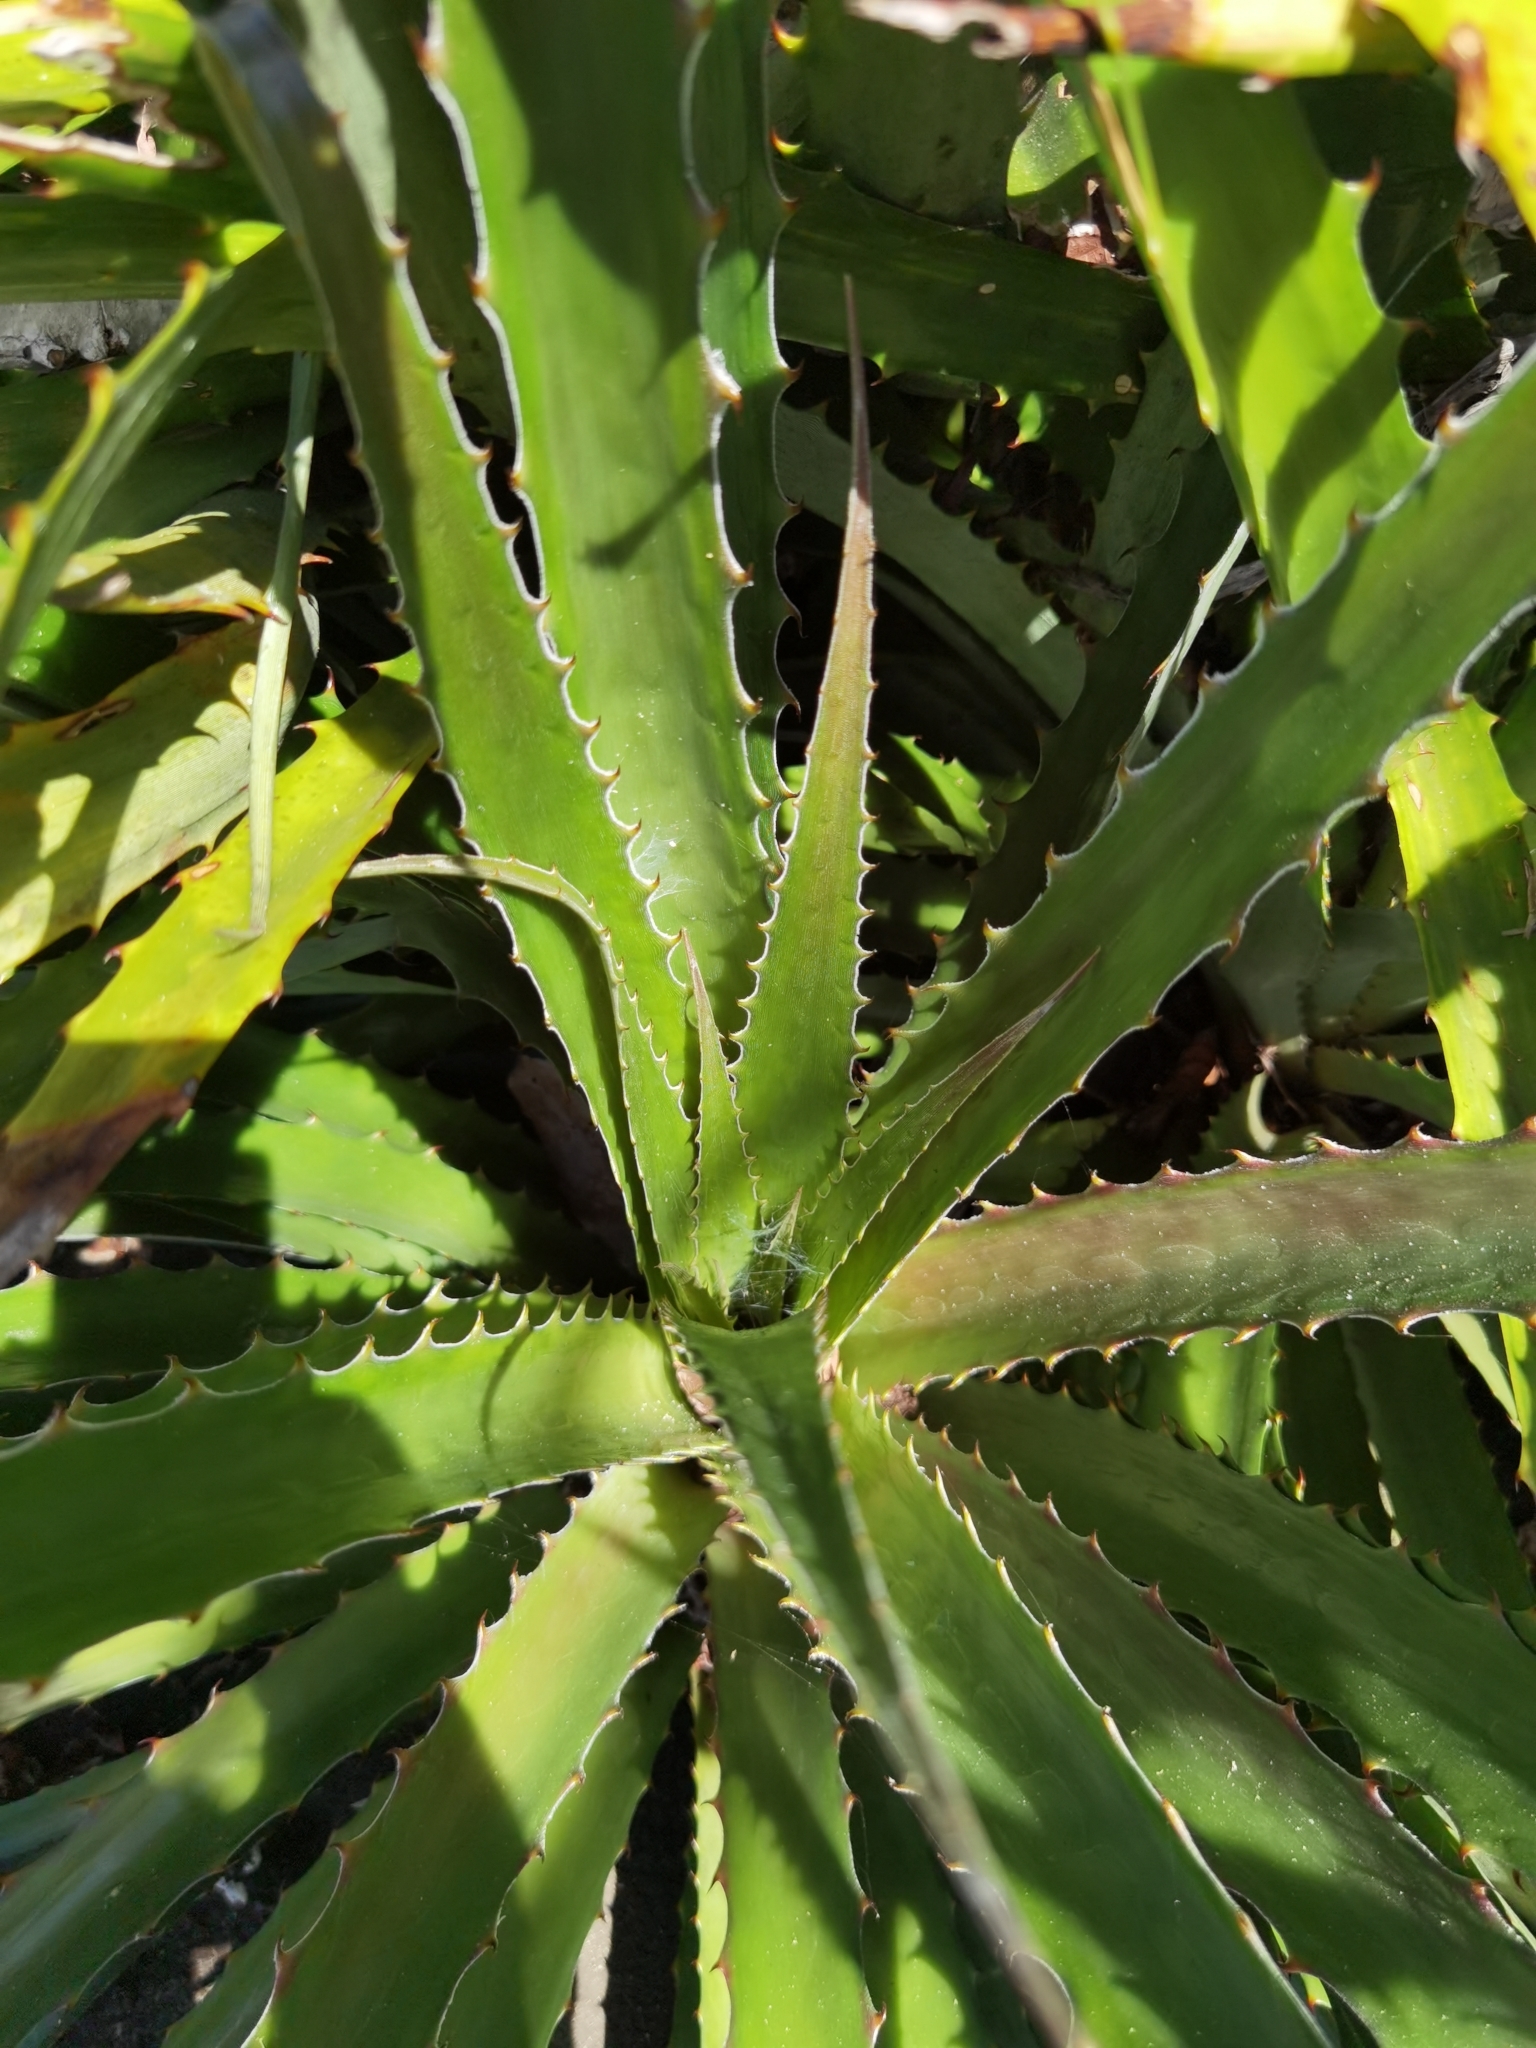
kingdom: Plantae
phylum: Tracheophyta
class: Liliopsida
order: Poales
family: Bromeliaceae
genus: Bromelia
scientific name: Bromelia pinguin
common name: Pinguin
